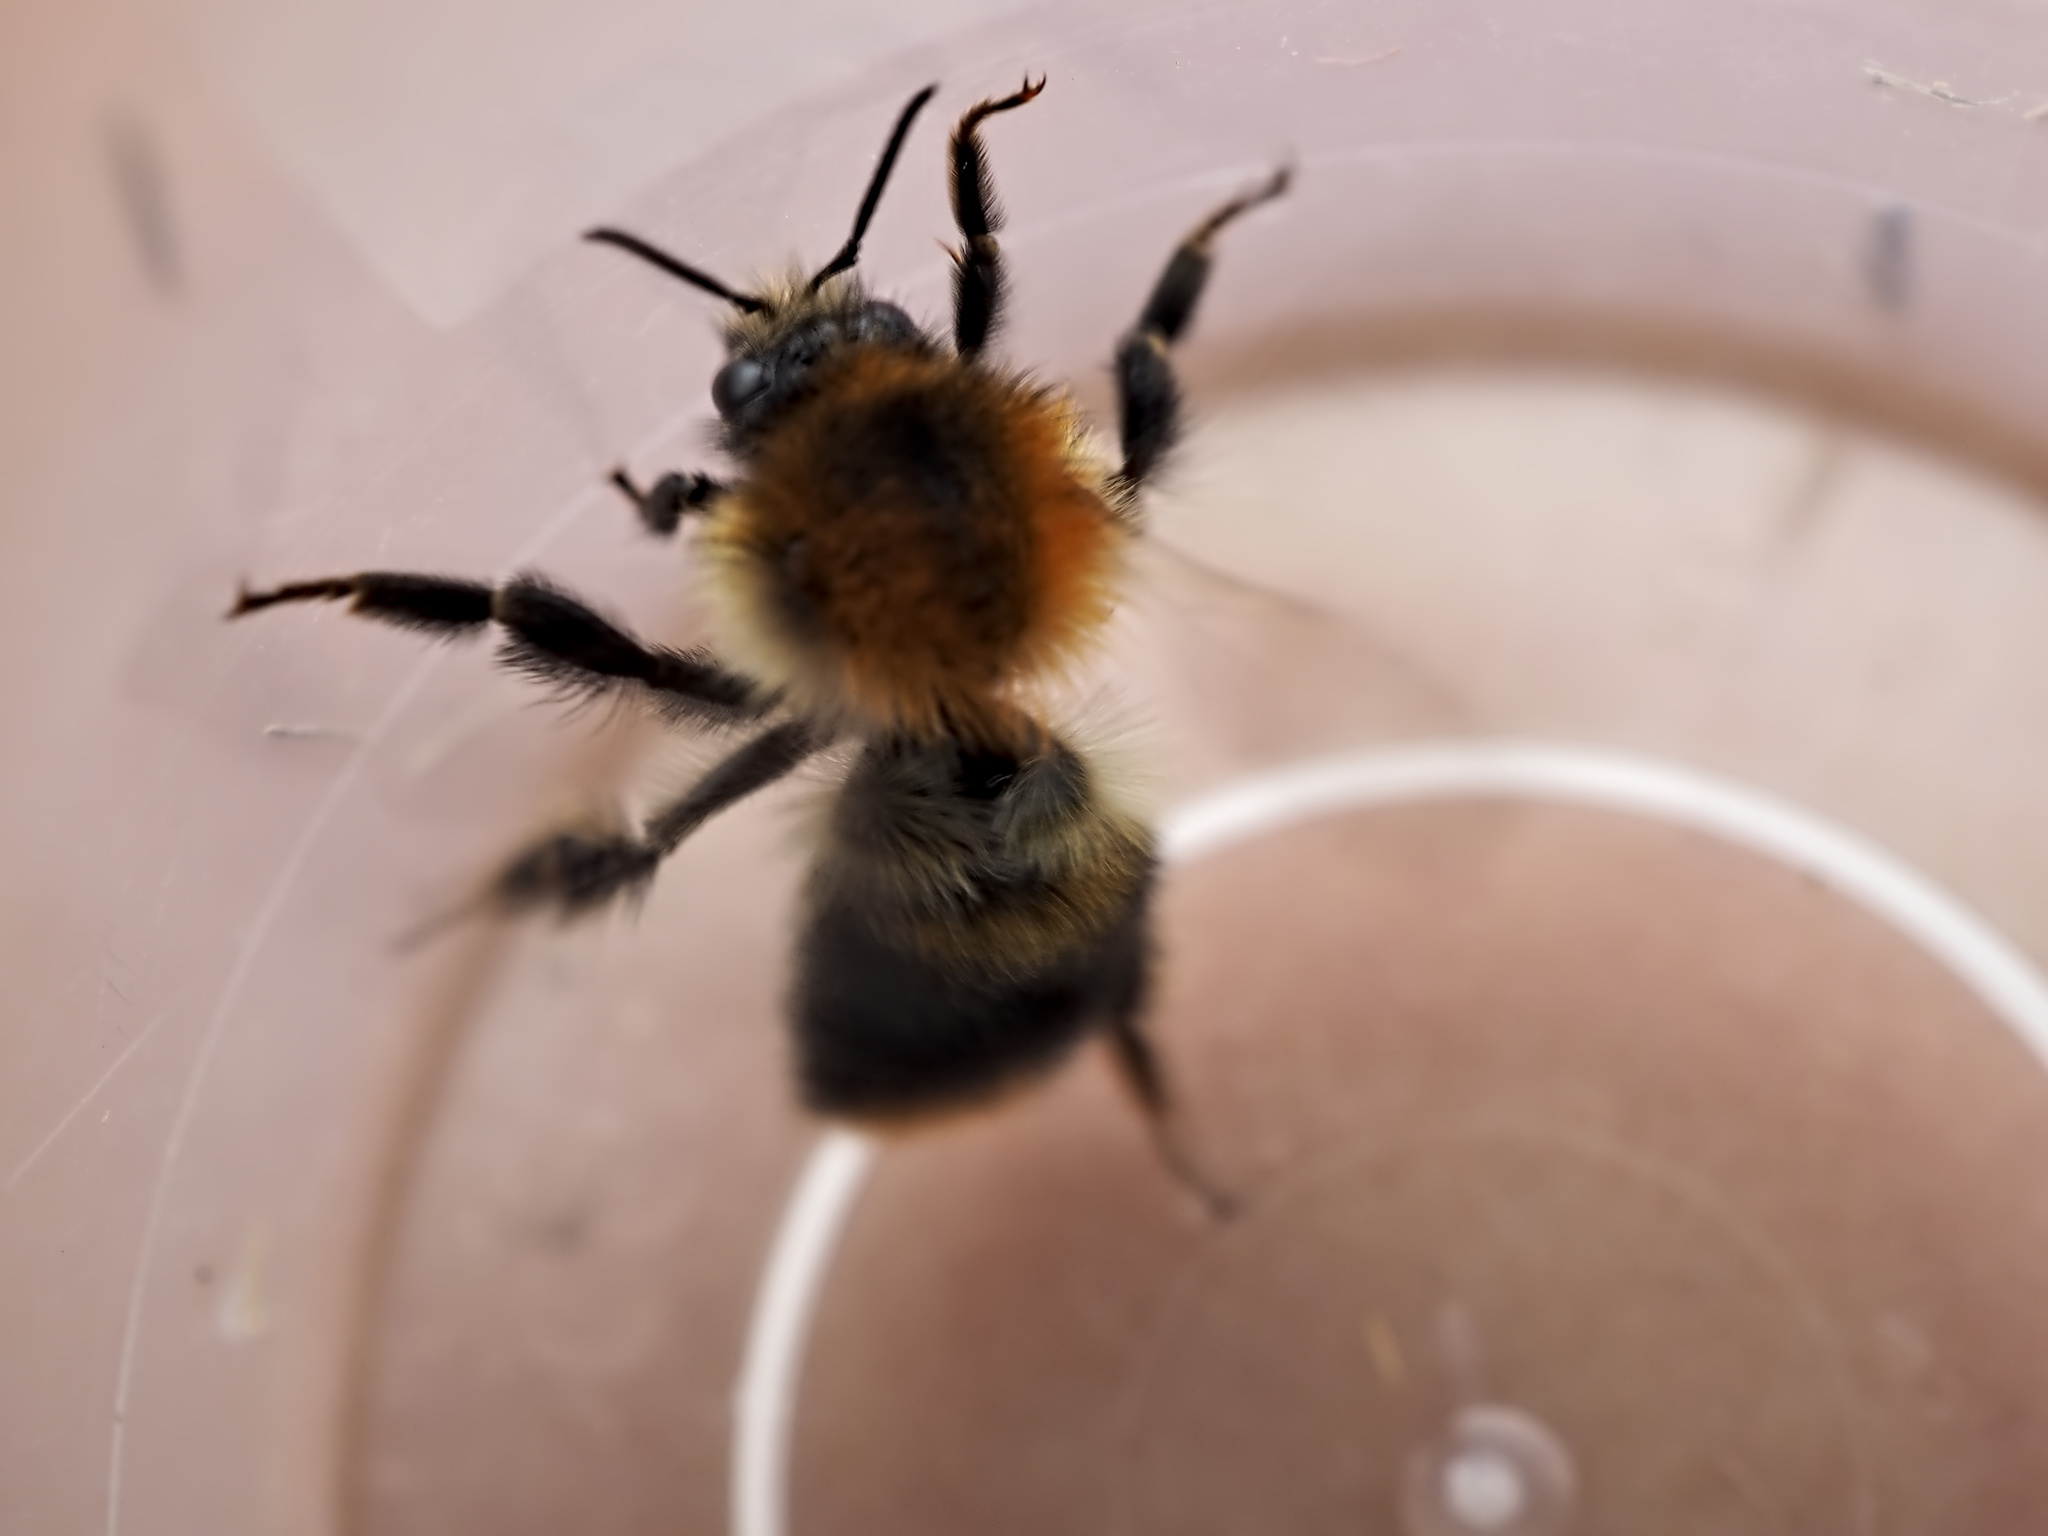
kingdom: Animalia
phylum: Arthropoda
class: Insecta
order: Hymenoptera
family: Apidae
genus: Bombus
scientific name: Bombus pascuorum
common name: Common carder bee
